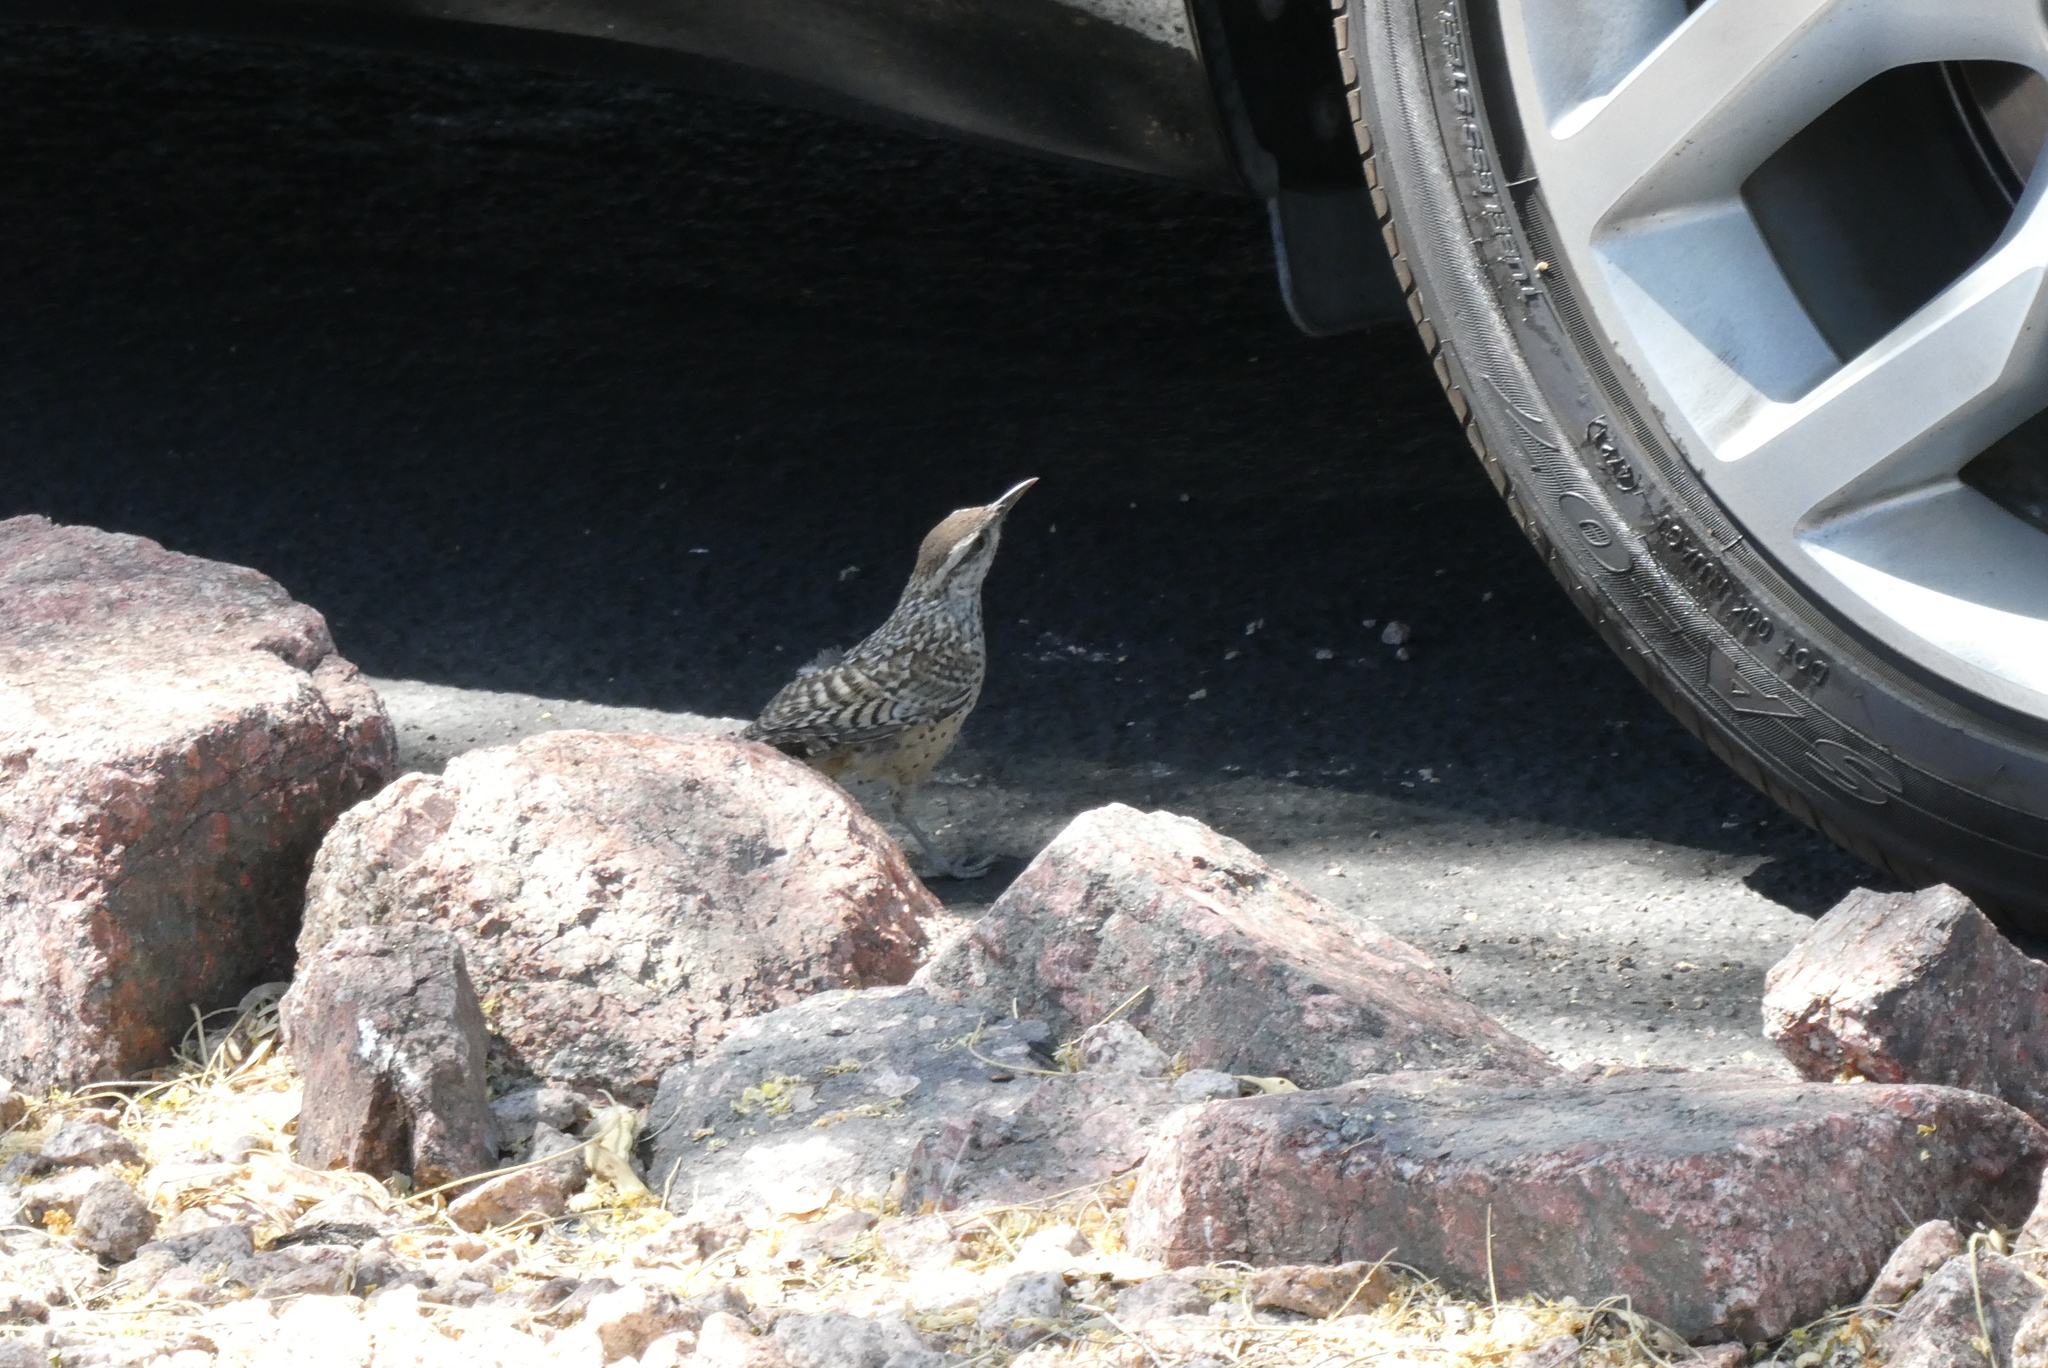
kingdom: Animalia
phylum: Chordata
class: Aves
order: Passeriformes
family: Troglodytidae
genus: Campylorhynchus
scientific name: Campylorhynchus brunneicapillus
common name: Cactus wren
